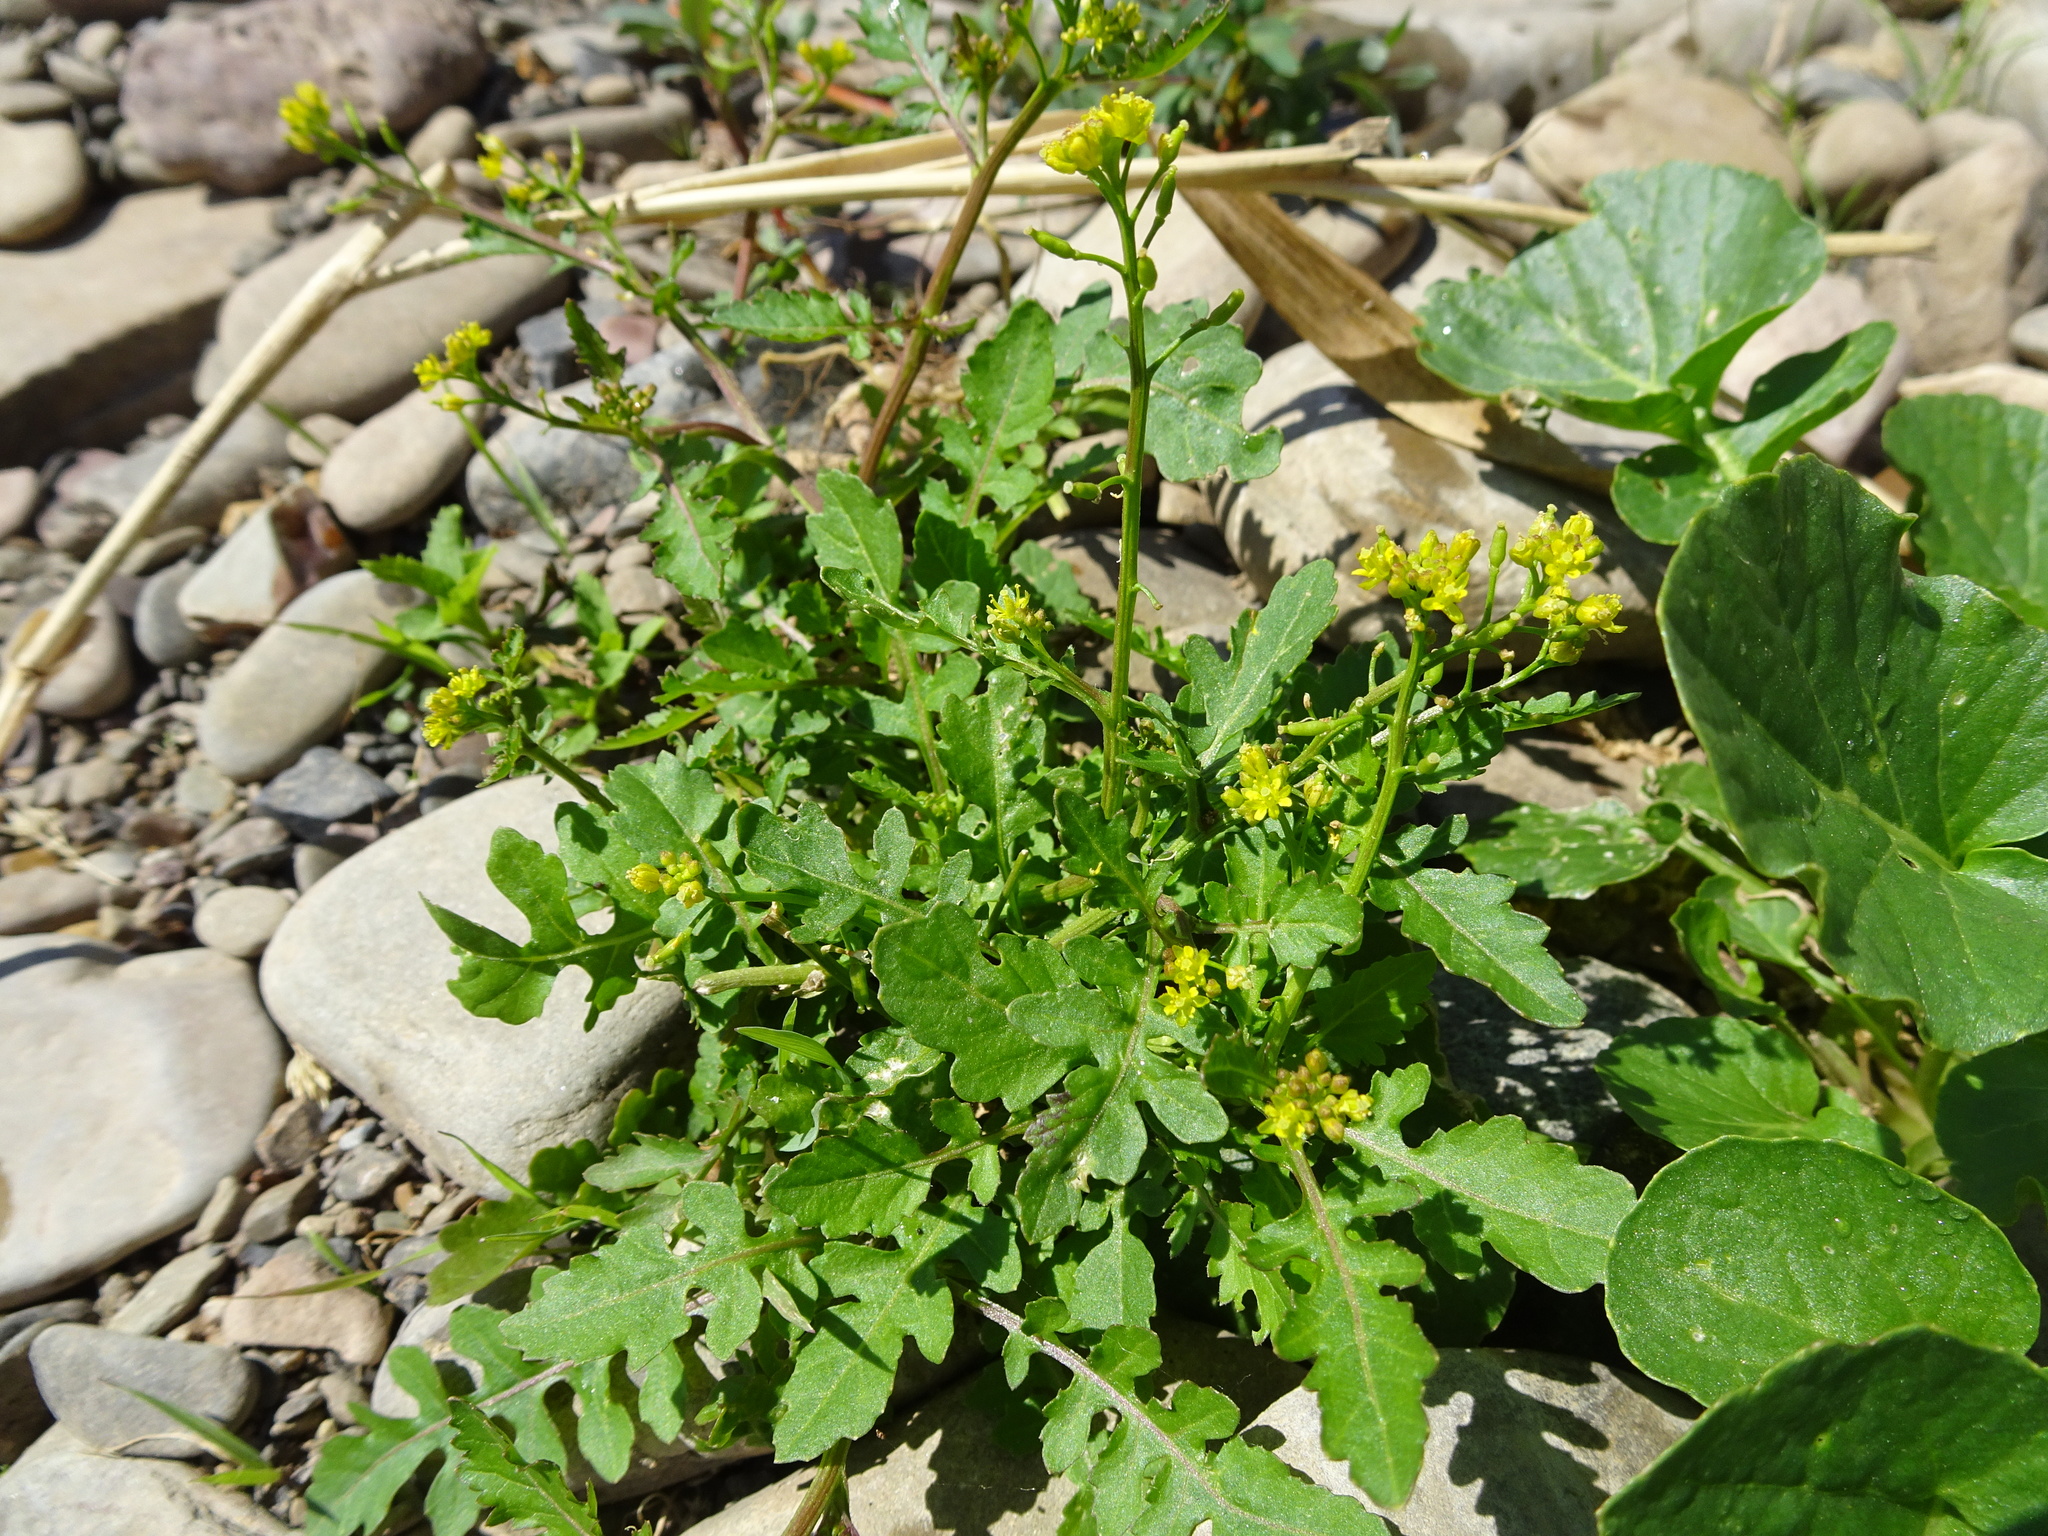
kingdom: Plantae
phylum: Tracheophyta
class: Magnoliopsida
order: Brassicales
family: Brassicaceae
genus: Rorippa
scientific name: Rorippa palustris
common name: Marsh yellow-cress
